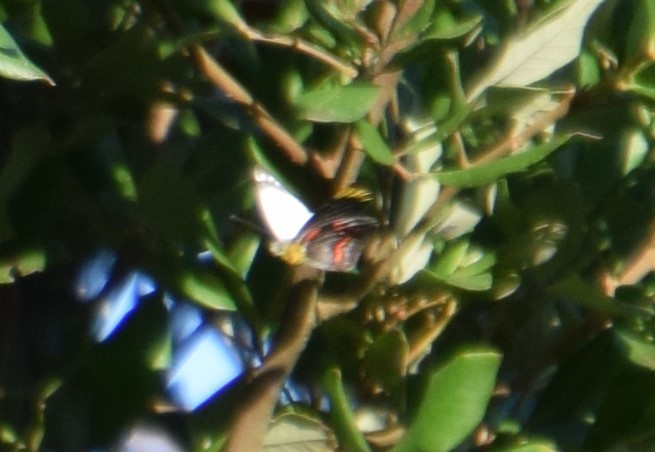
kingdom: Animalia
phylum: Arthropoda
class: Insecta
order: Lepidoptera
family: Pieridae
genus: Delias
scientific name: Delias nigrina
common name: Black jezebel
